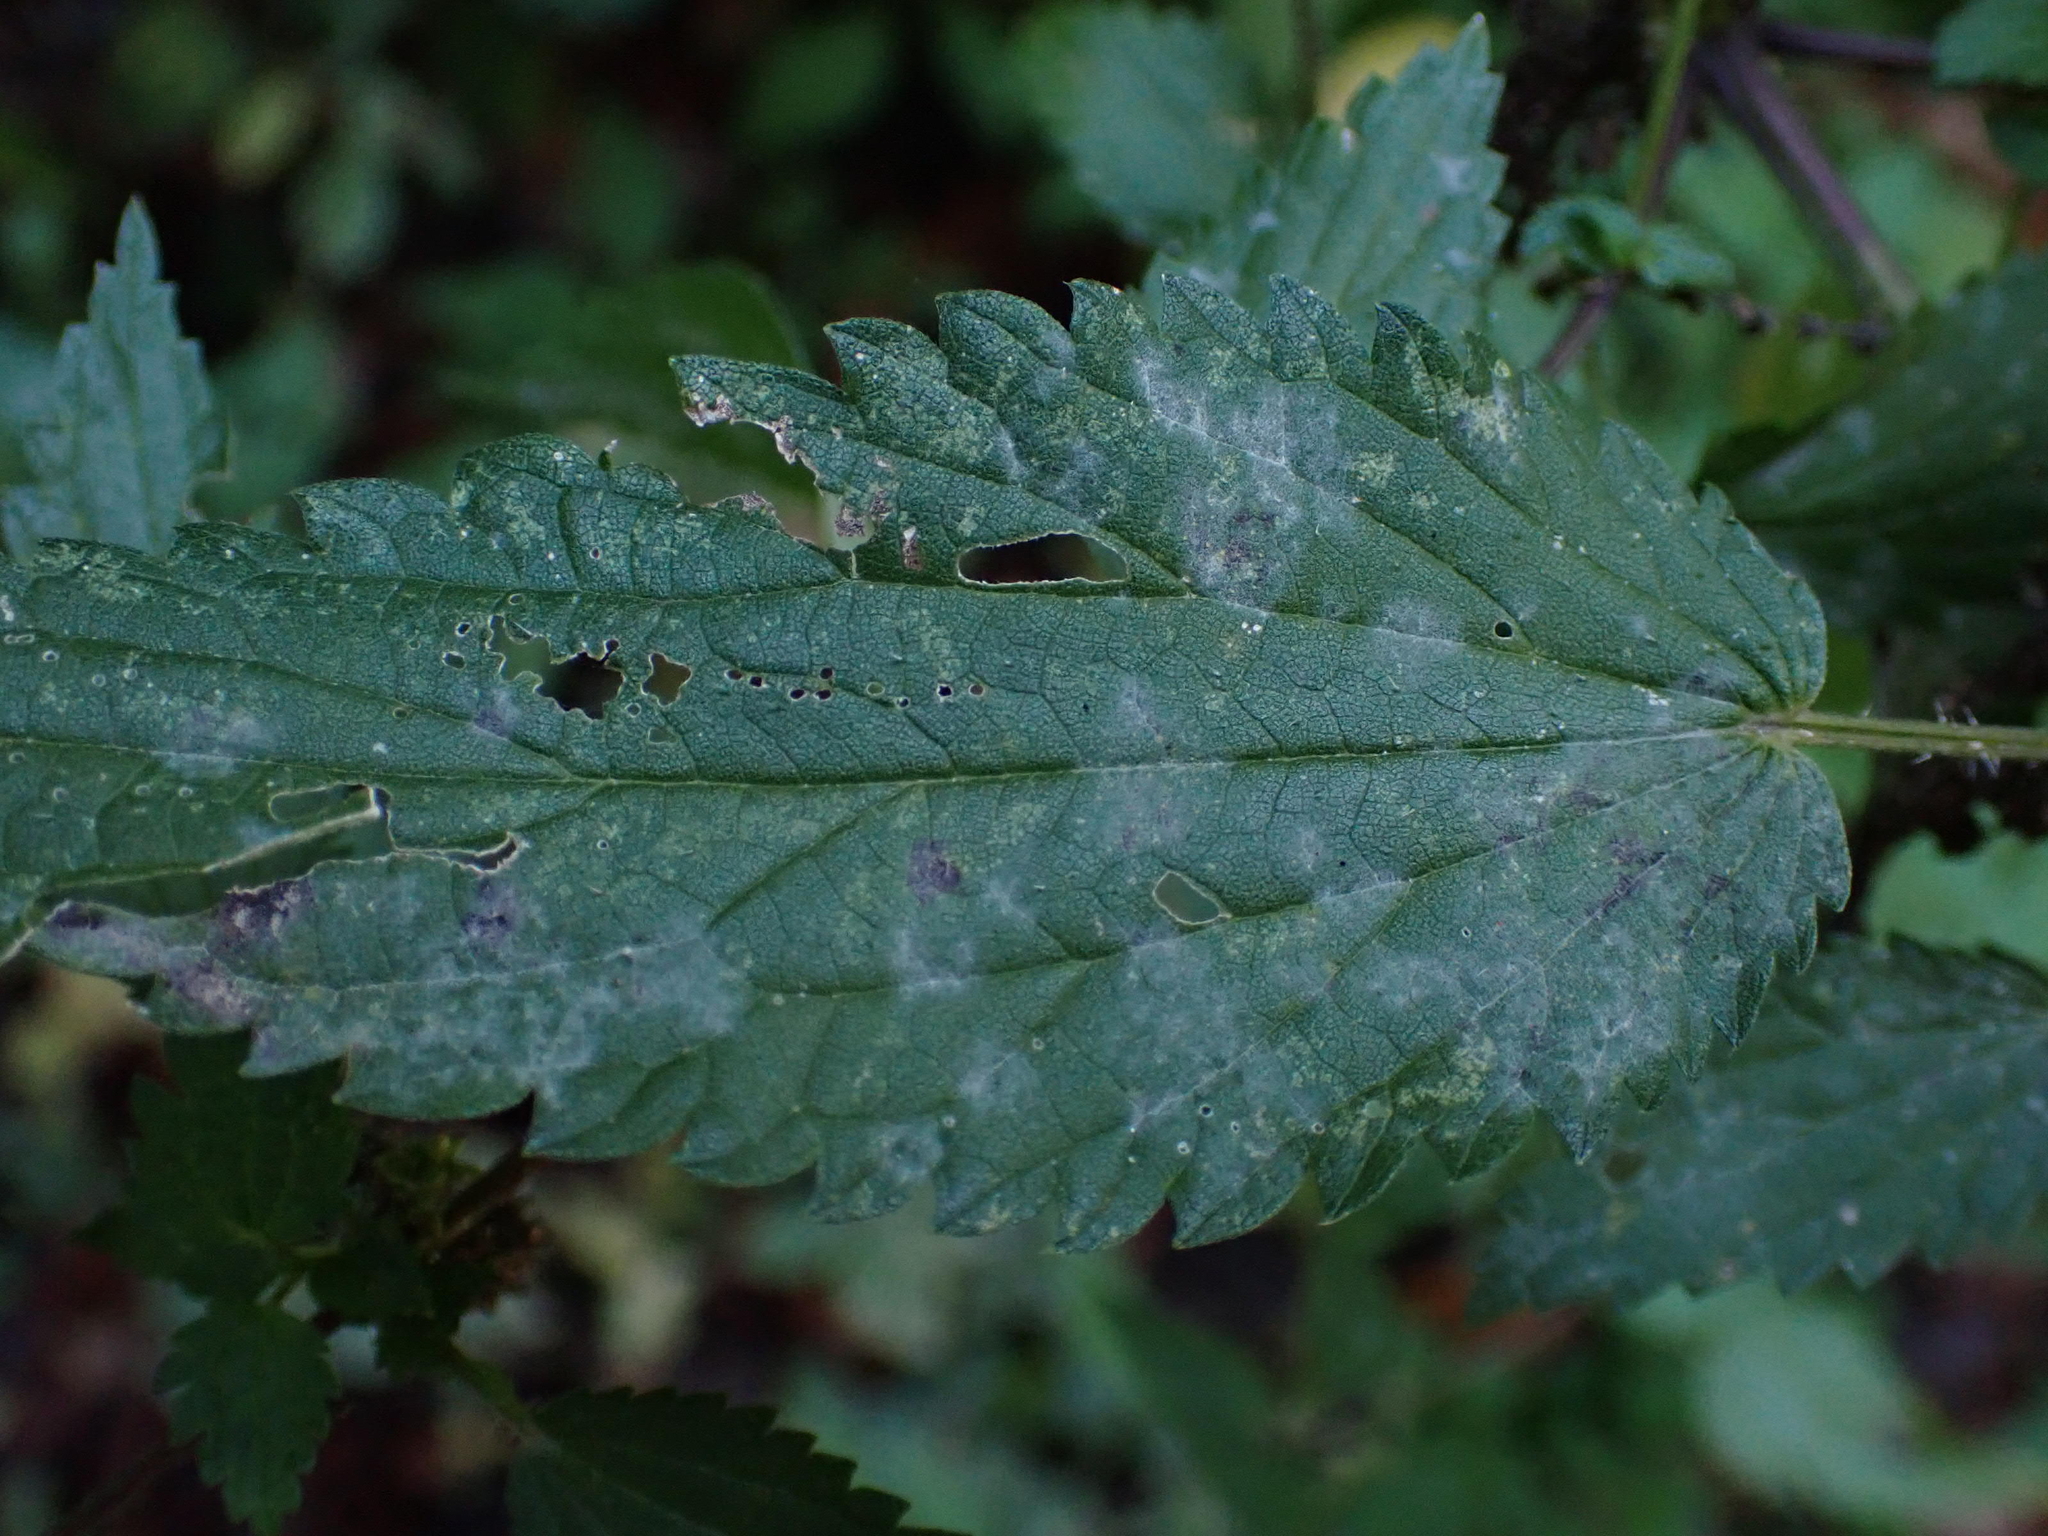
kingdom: Fungi
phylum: Ascomycota
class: Leotiomycetes
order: Helotiales
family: Erysiphaceae
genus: Erysiphe
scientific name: Erysiphe urticae
